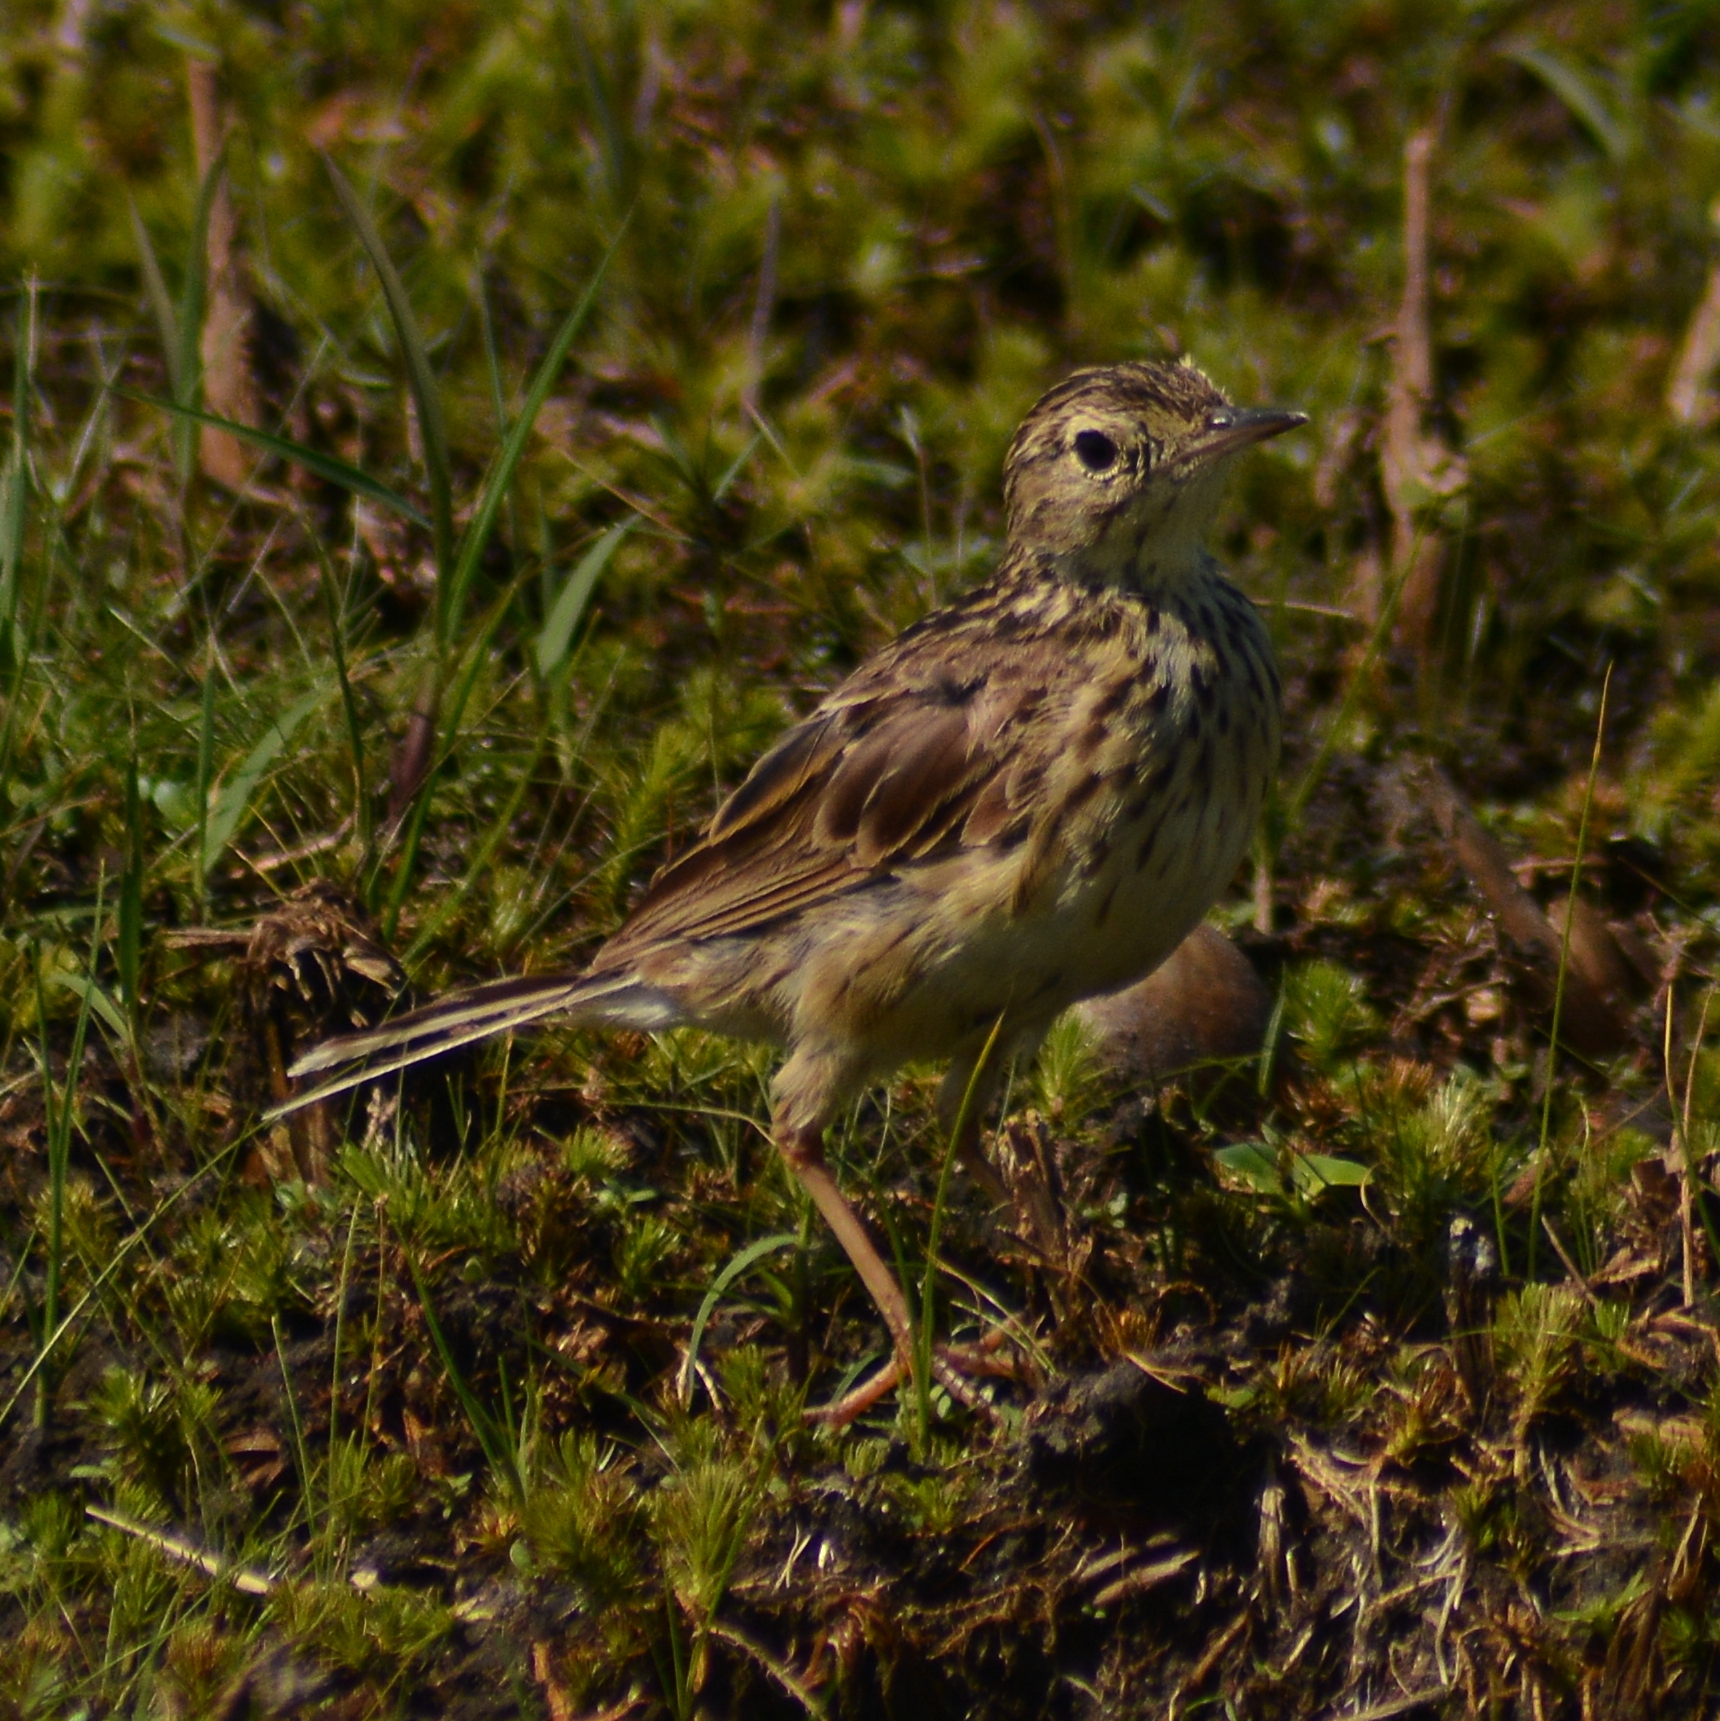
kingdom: Animalia
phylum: Chordata
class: Aves
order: Passeriformes
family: Motacillidae
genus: Anthus
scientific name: Anthus chii
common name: Yellowish pipit
